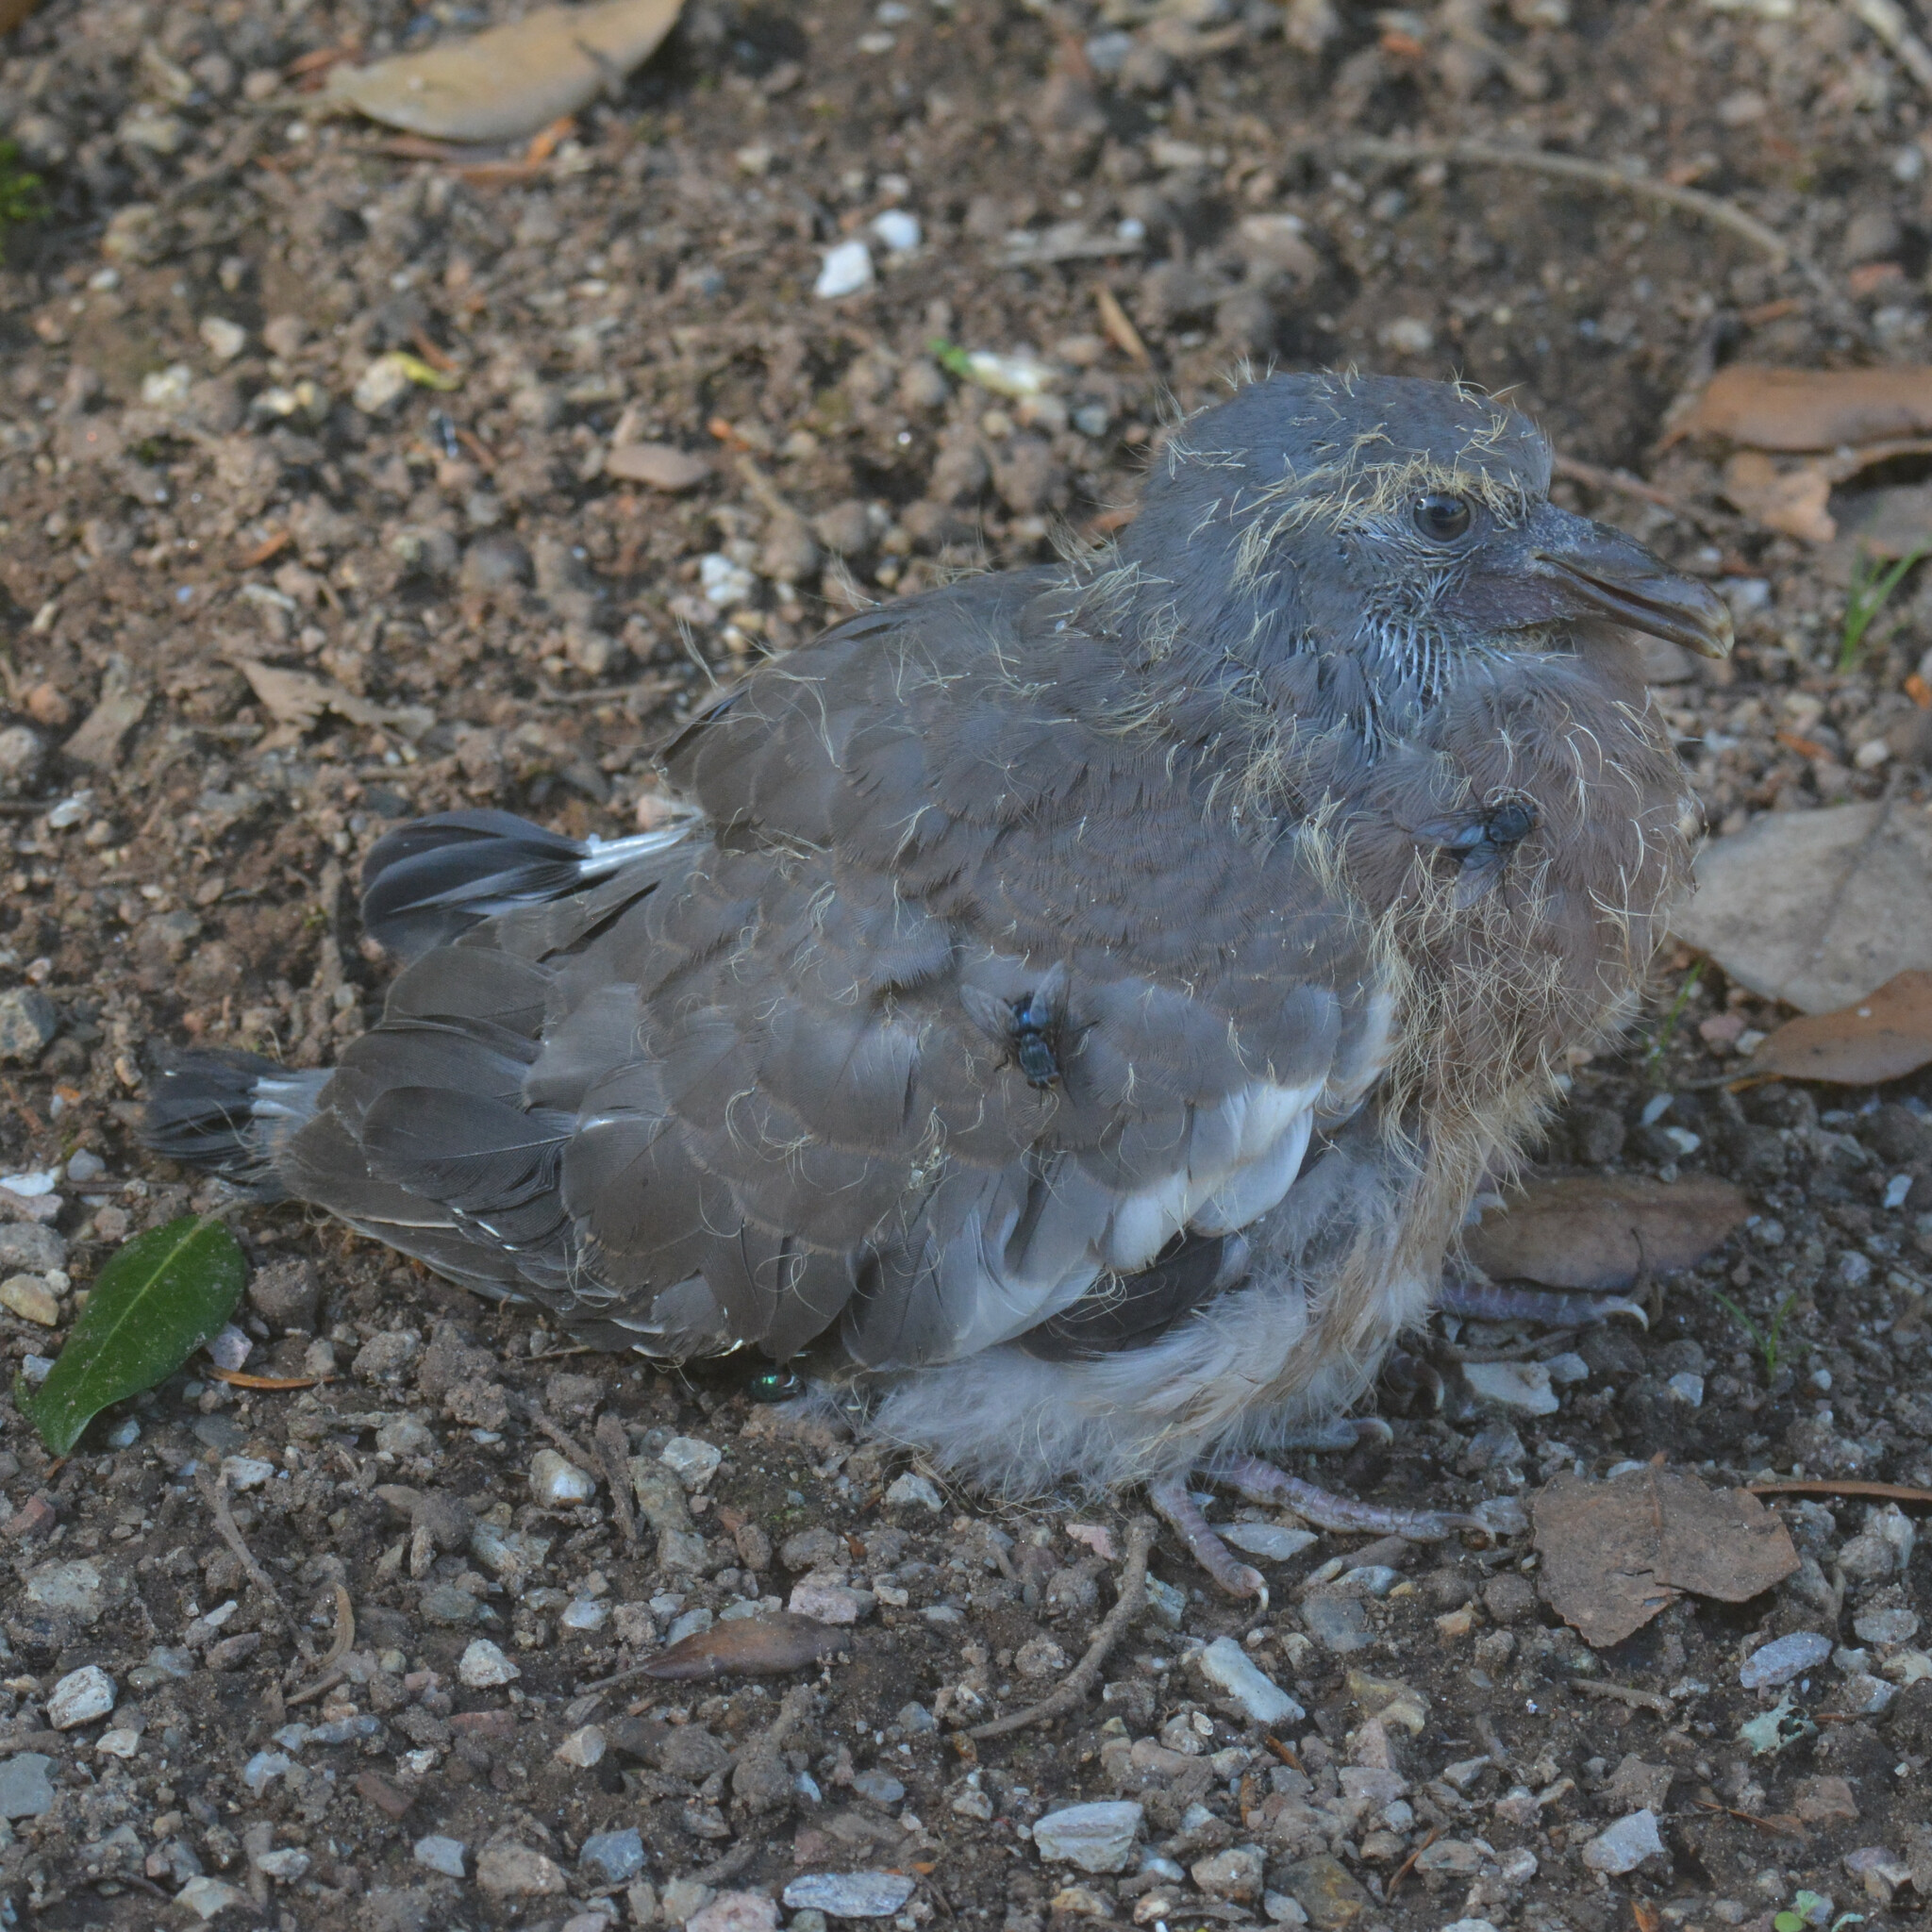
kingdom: Animalia
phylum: Chordata
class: Aves
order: Columbiformes
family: Columbidae
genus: Columba
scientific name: Columba palumbus
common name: Common wood pigeon
